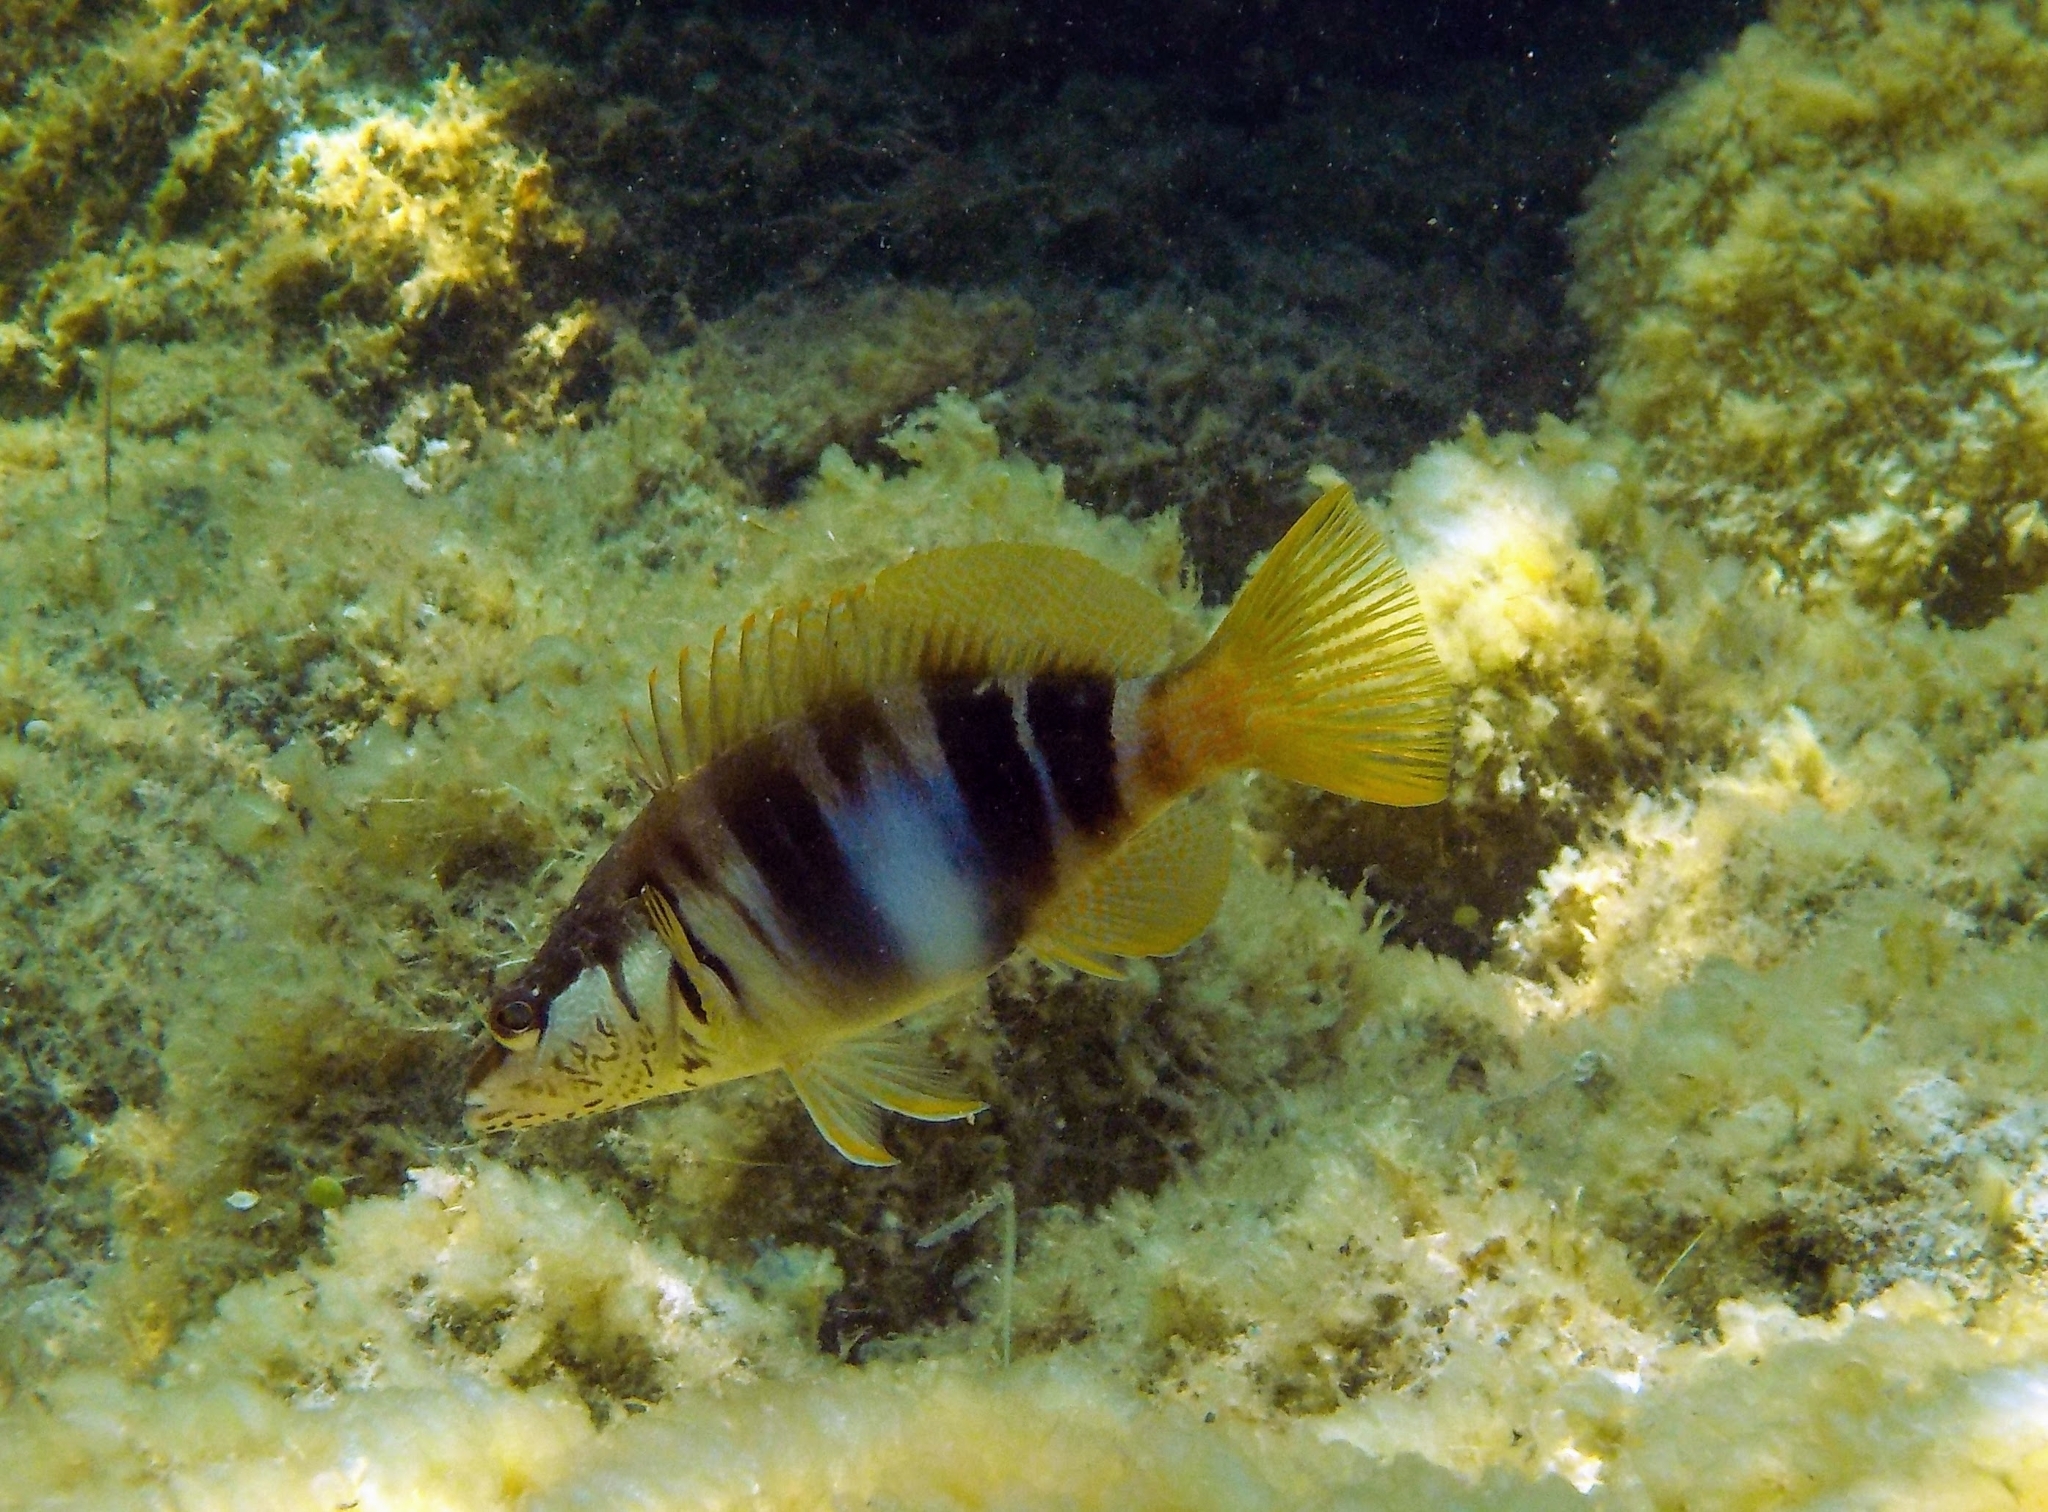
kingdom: Animalia
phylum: Chordata
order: Perciformes
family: Serranidae
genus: Serranus
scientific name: Serranus scriba
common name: Painted comber
